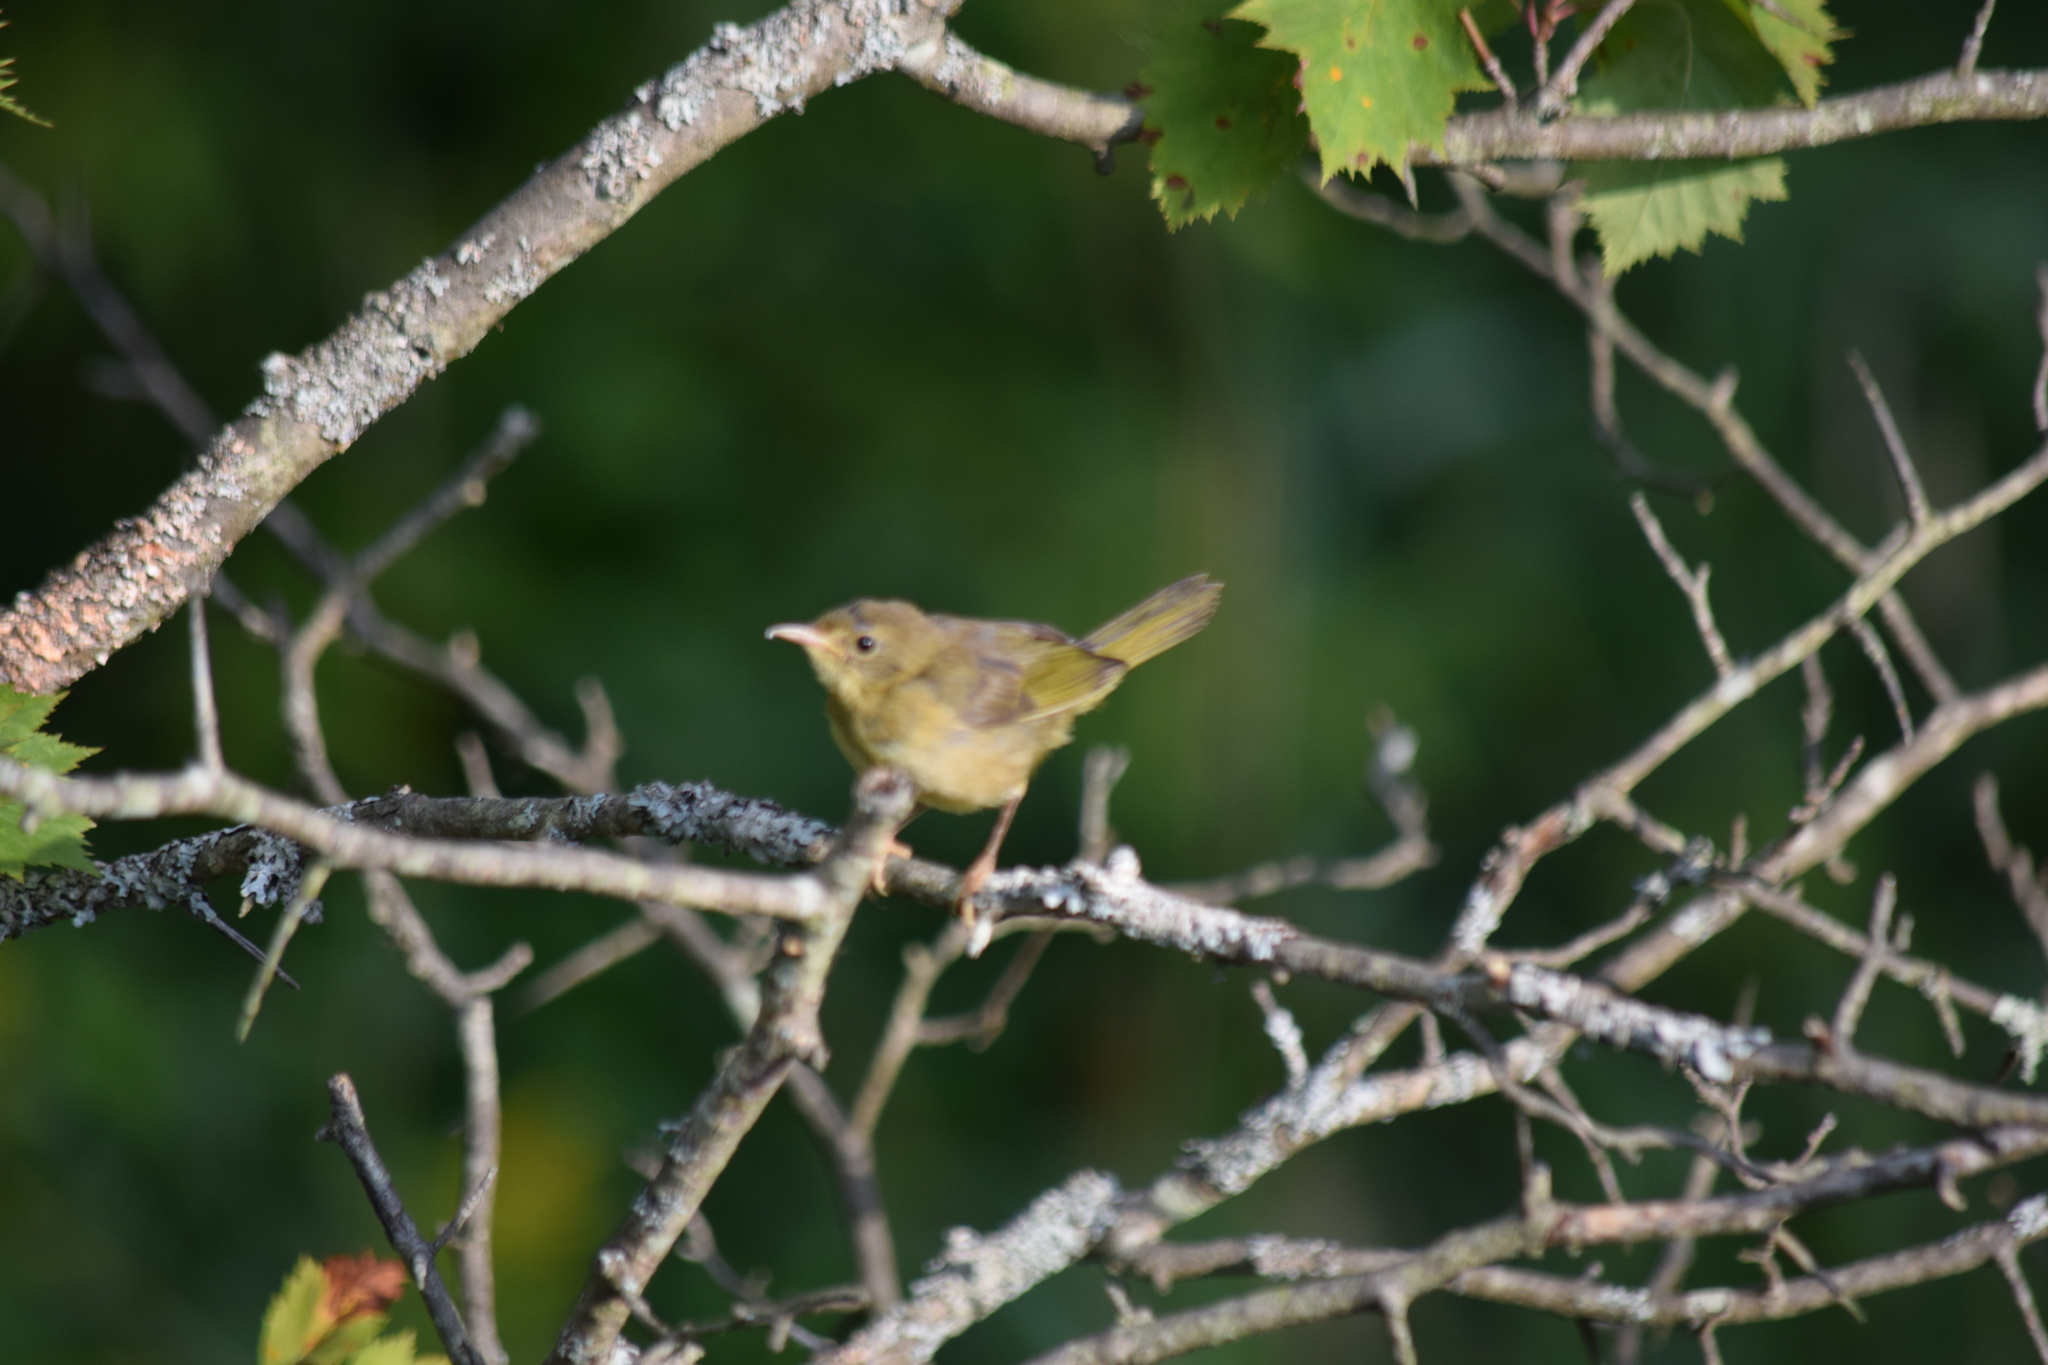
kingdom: Animalia
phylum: Chordata
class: Aves
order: Passeriformes
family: Parulidae
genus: Geothlypis
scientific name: Geothlypis trichas
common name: Common yellowthroat
